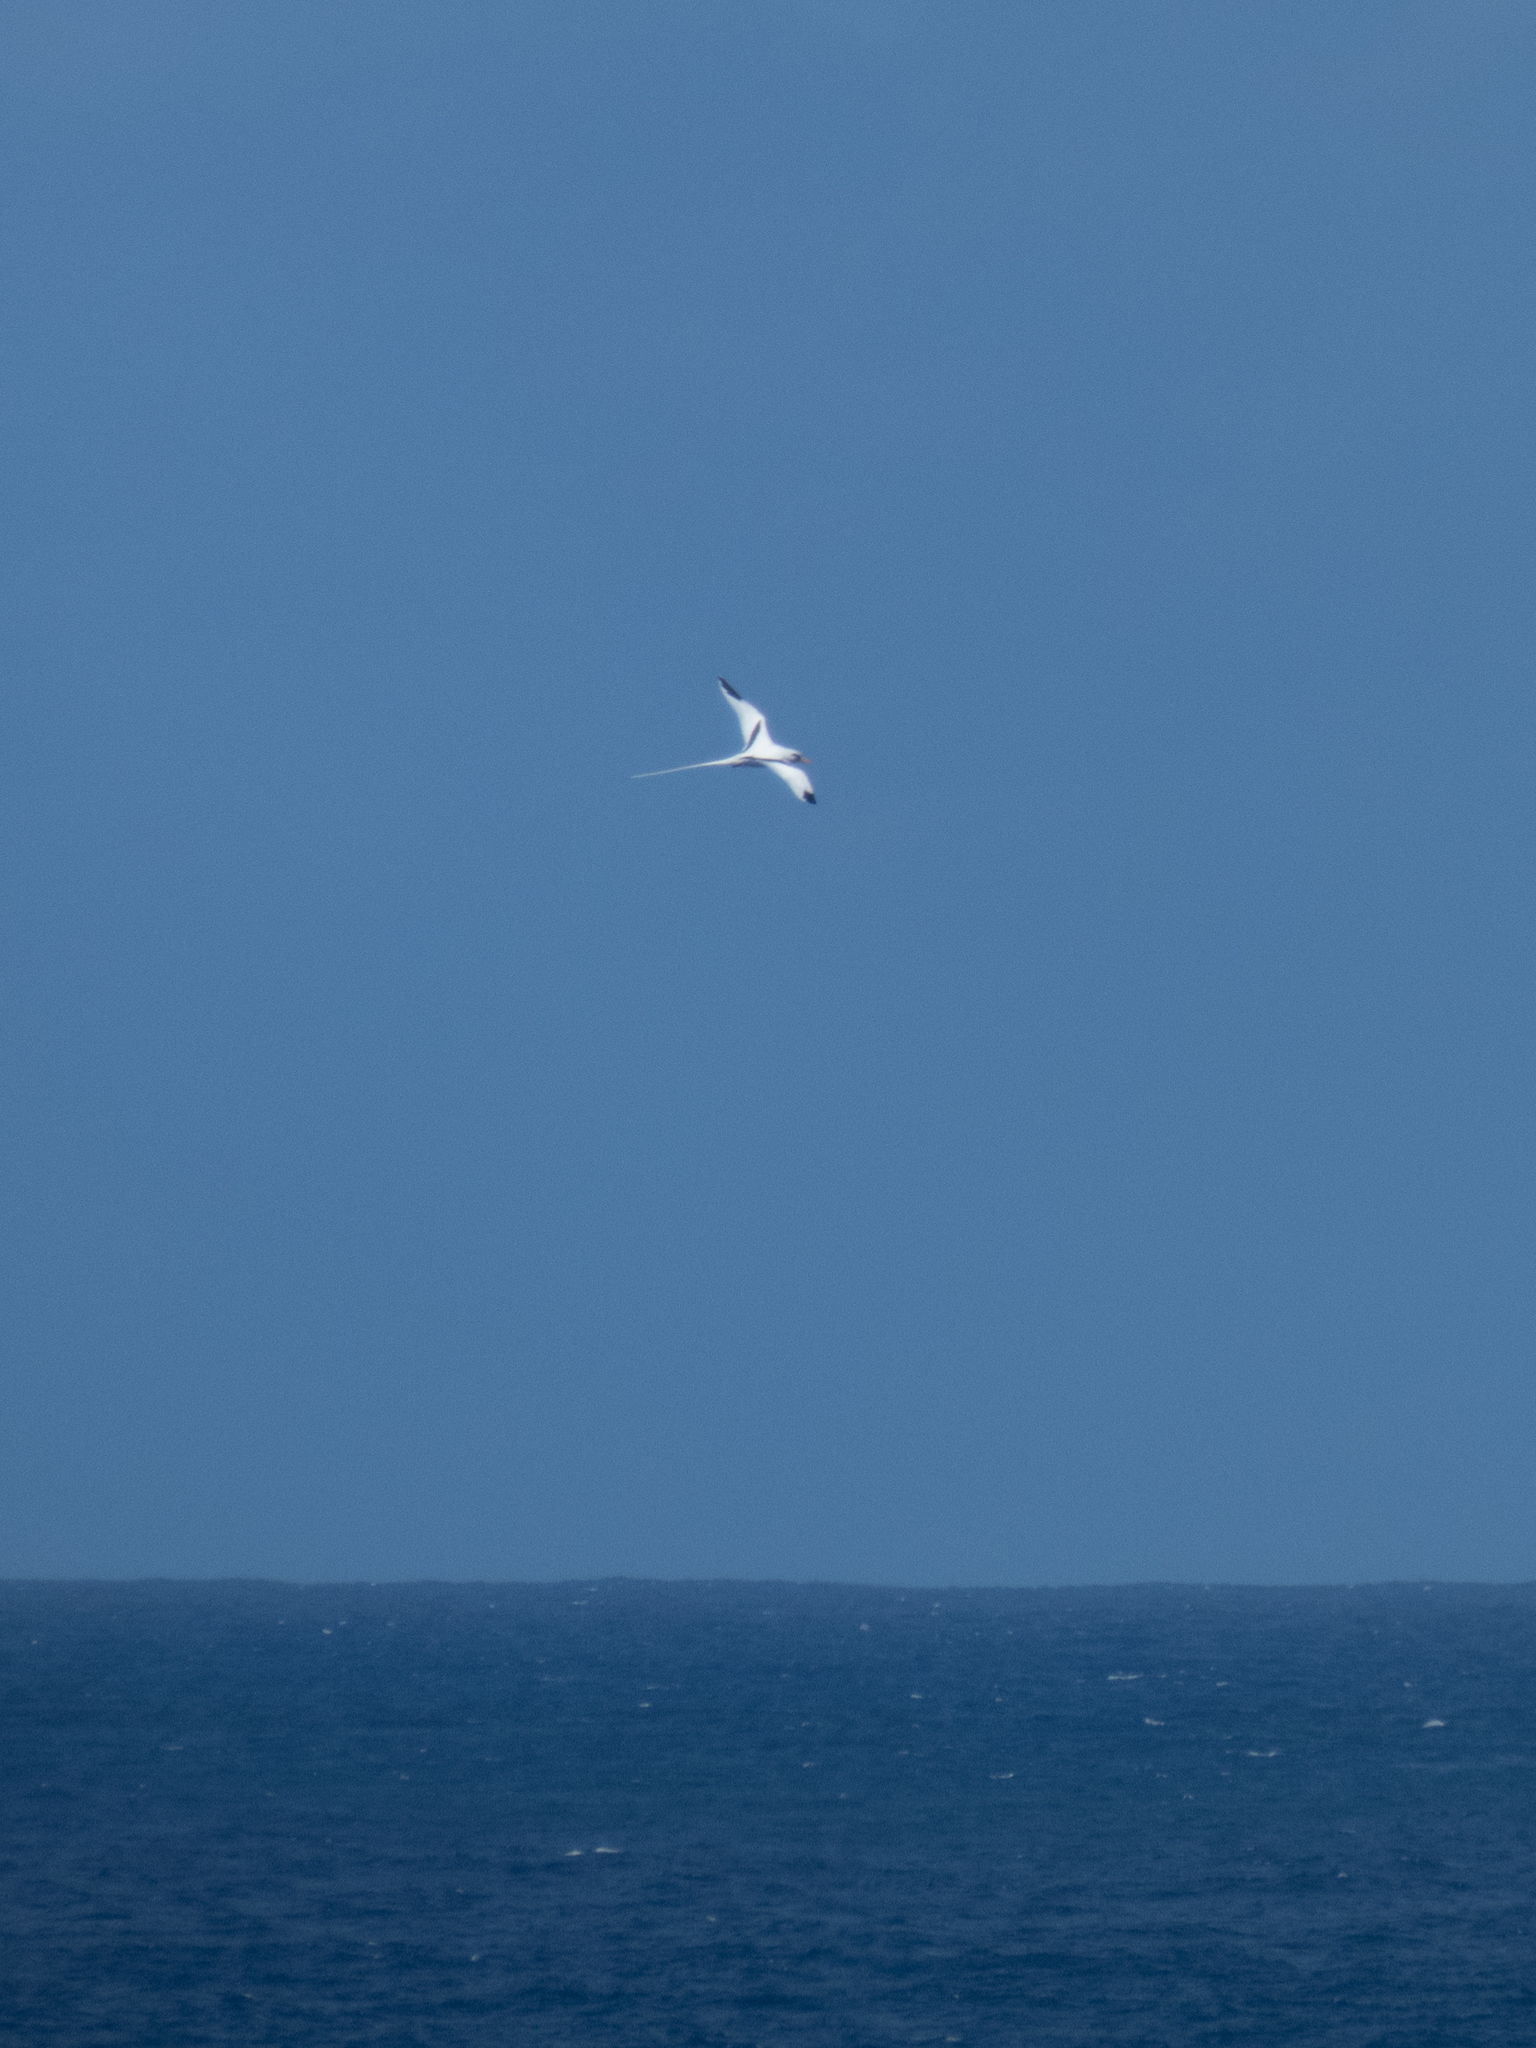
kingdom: Animalia
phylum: Chordata
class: Aves
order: Phaethontiformes
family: Phaethontidae
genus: Phaethon
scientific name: Phaethon lepturus
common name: White-tailed tropicbird
